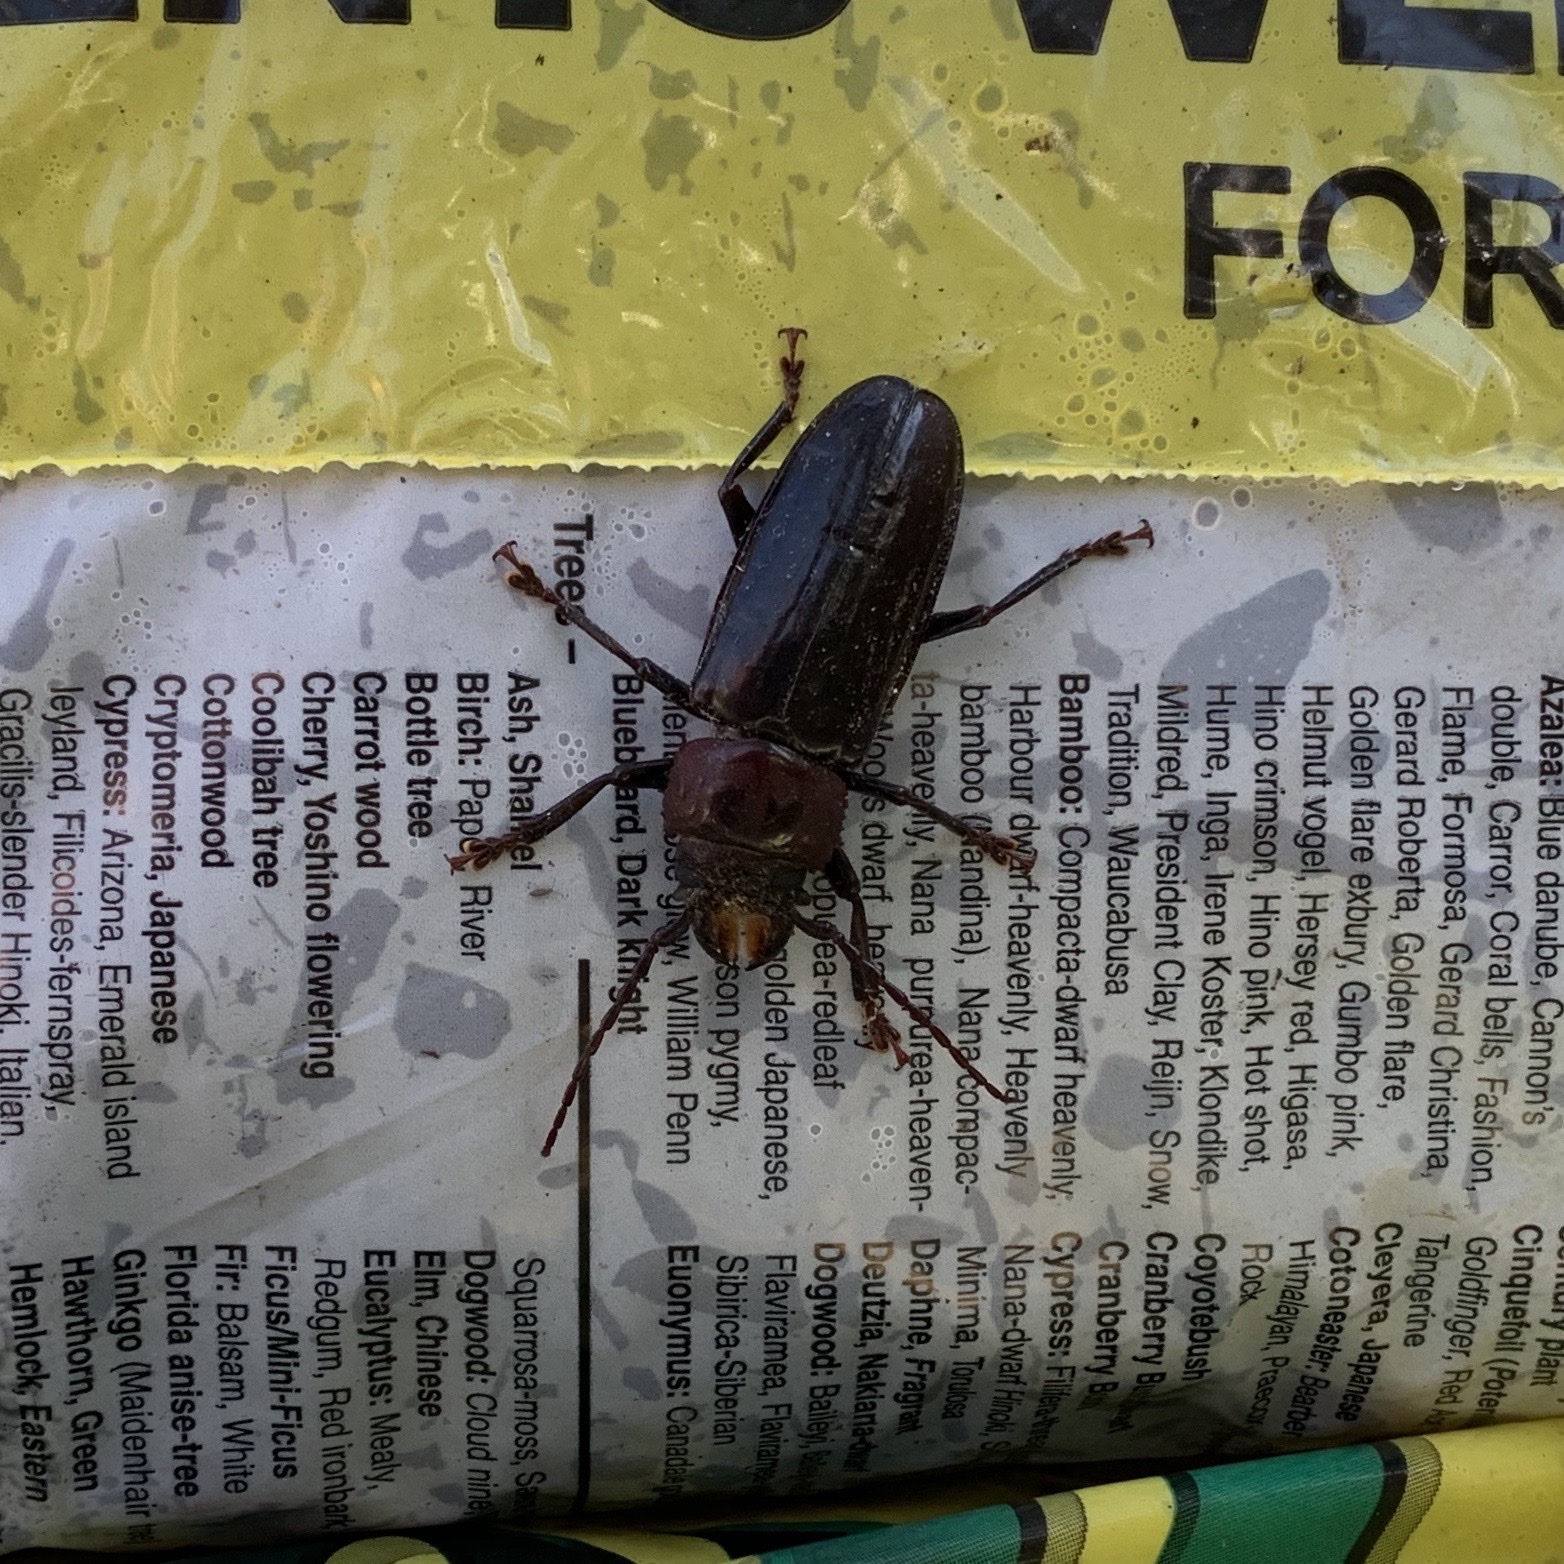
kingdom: Animalia
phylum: Arthropoda
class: Insecta
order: Coleoptera
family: Cerambycidae
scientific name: Cerambycidae
